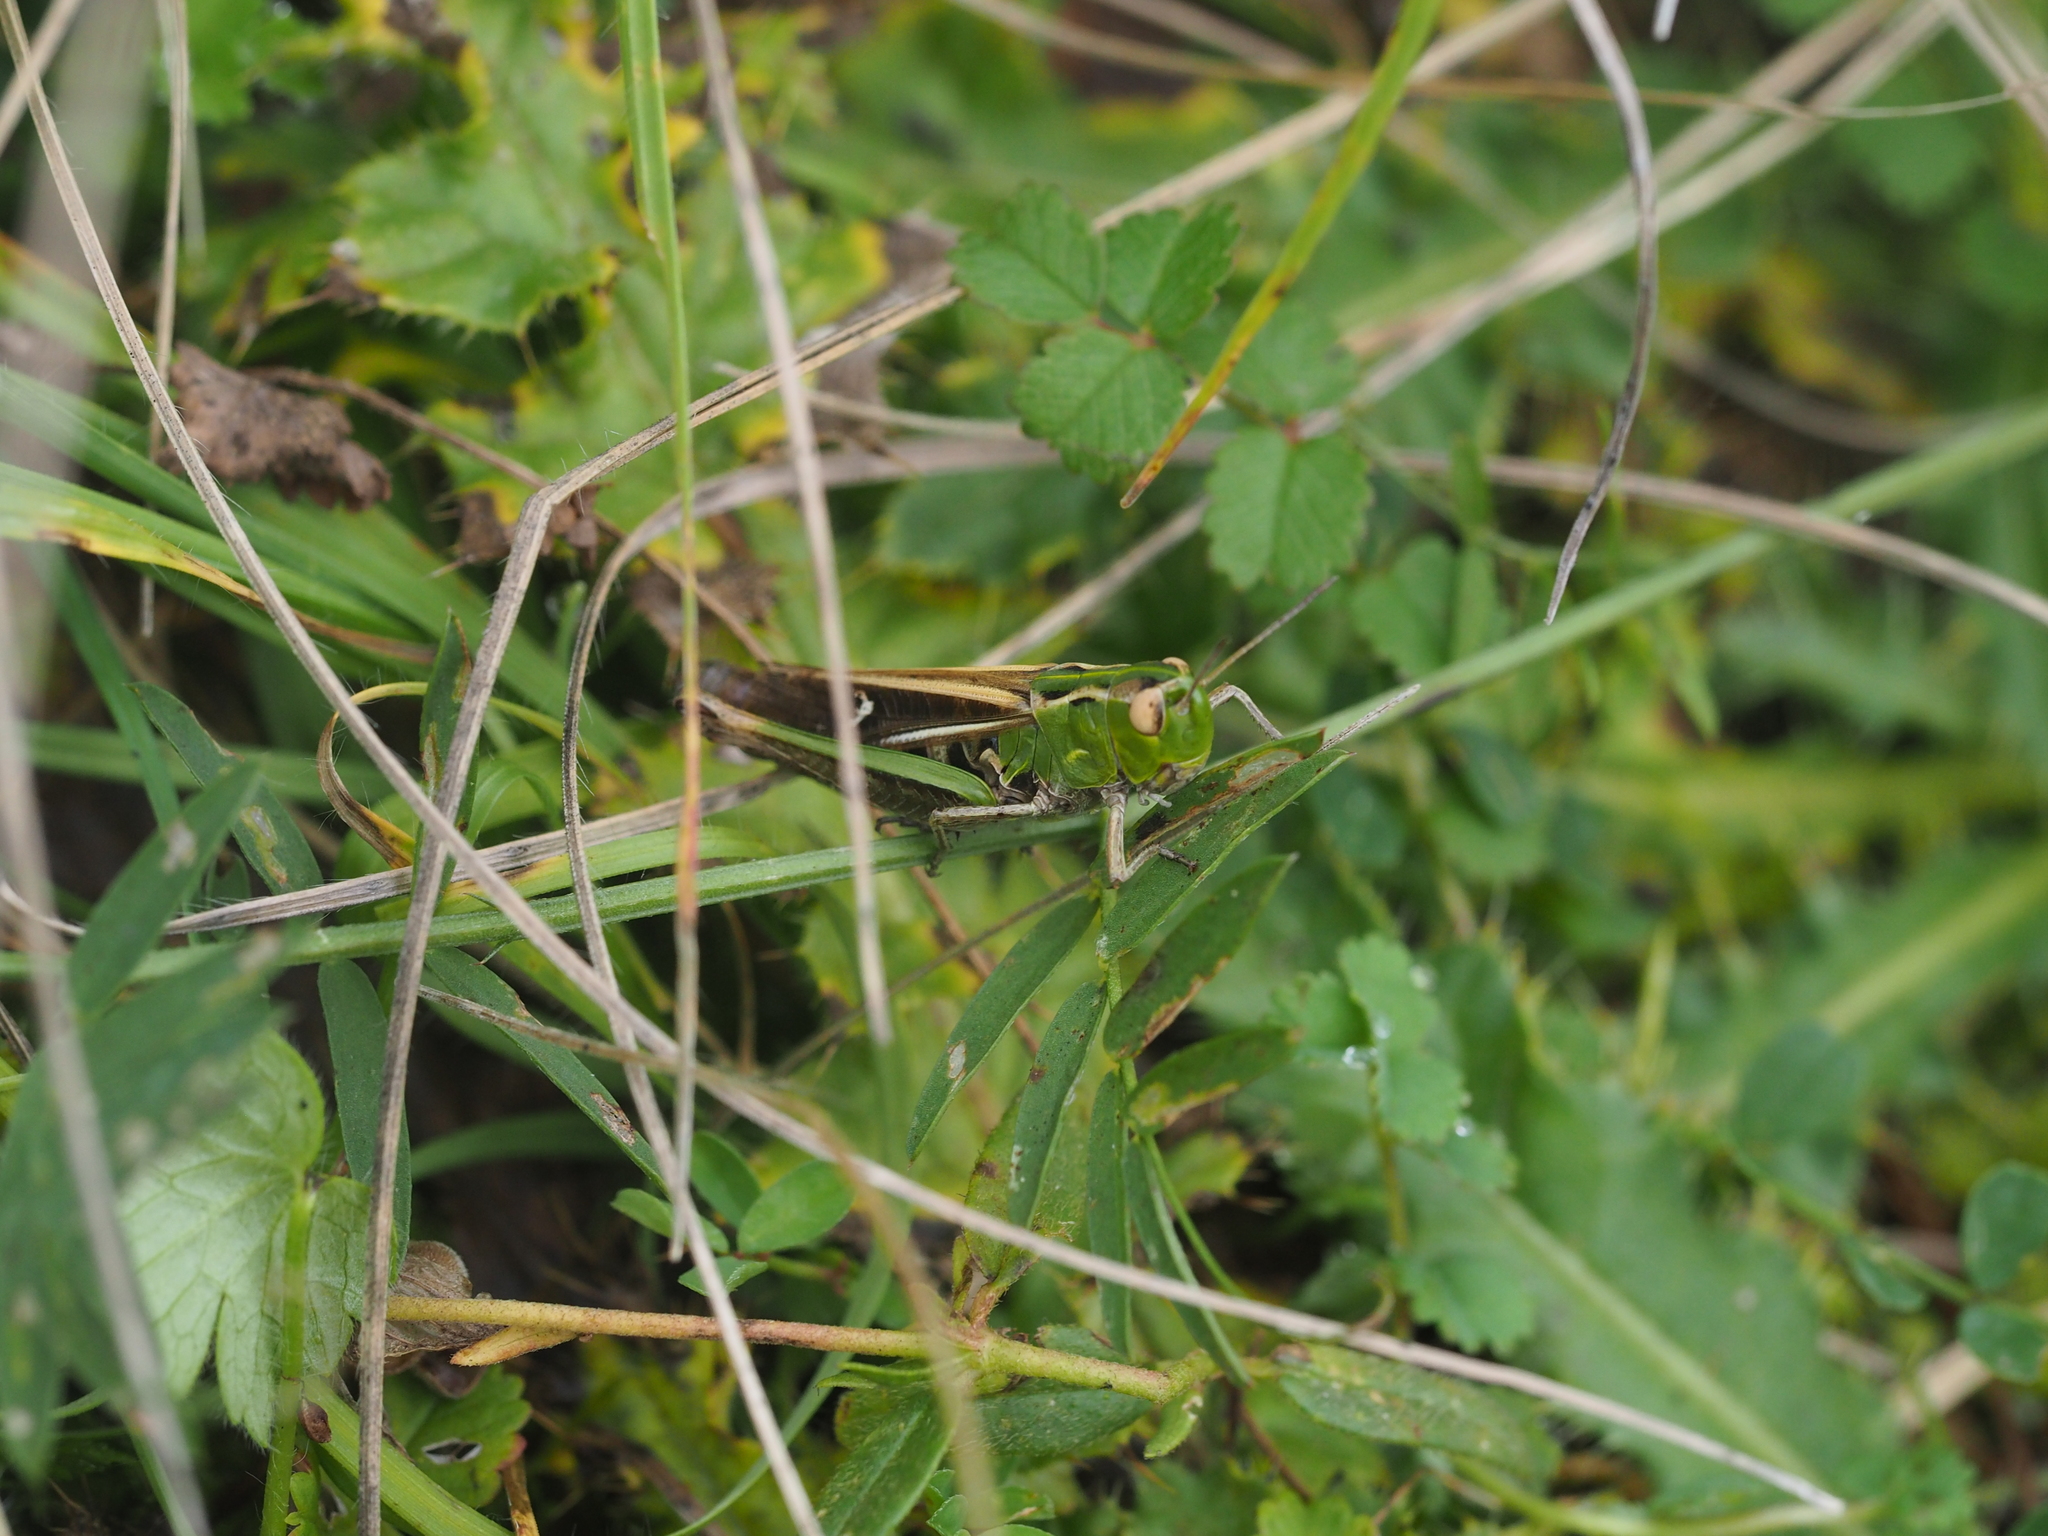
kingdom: Animalia
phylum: Arthropoda
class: Insecta
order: Orthoptera
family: Acrididae
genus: Stenobothrus
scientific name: Stenobothrus lineatus
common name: Stripe-winged grasshopper
